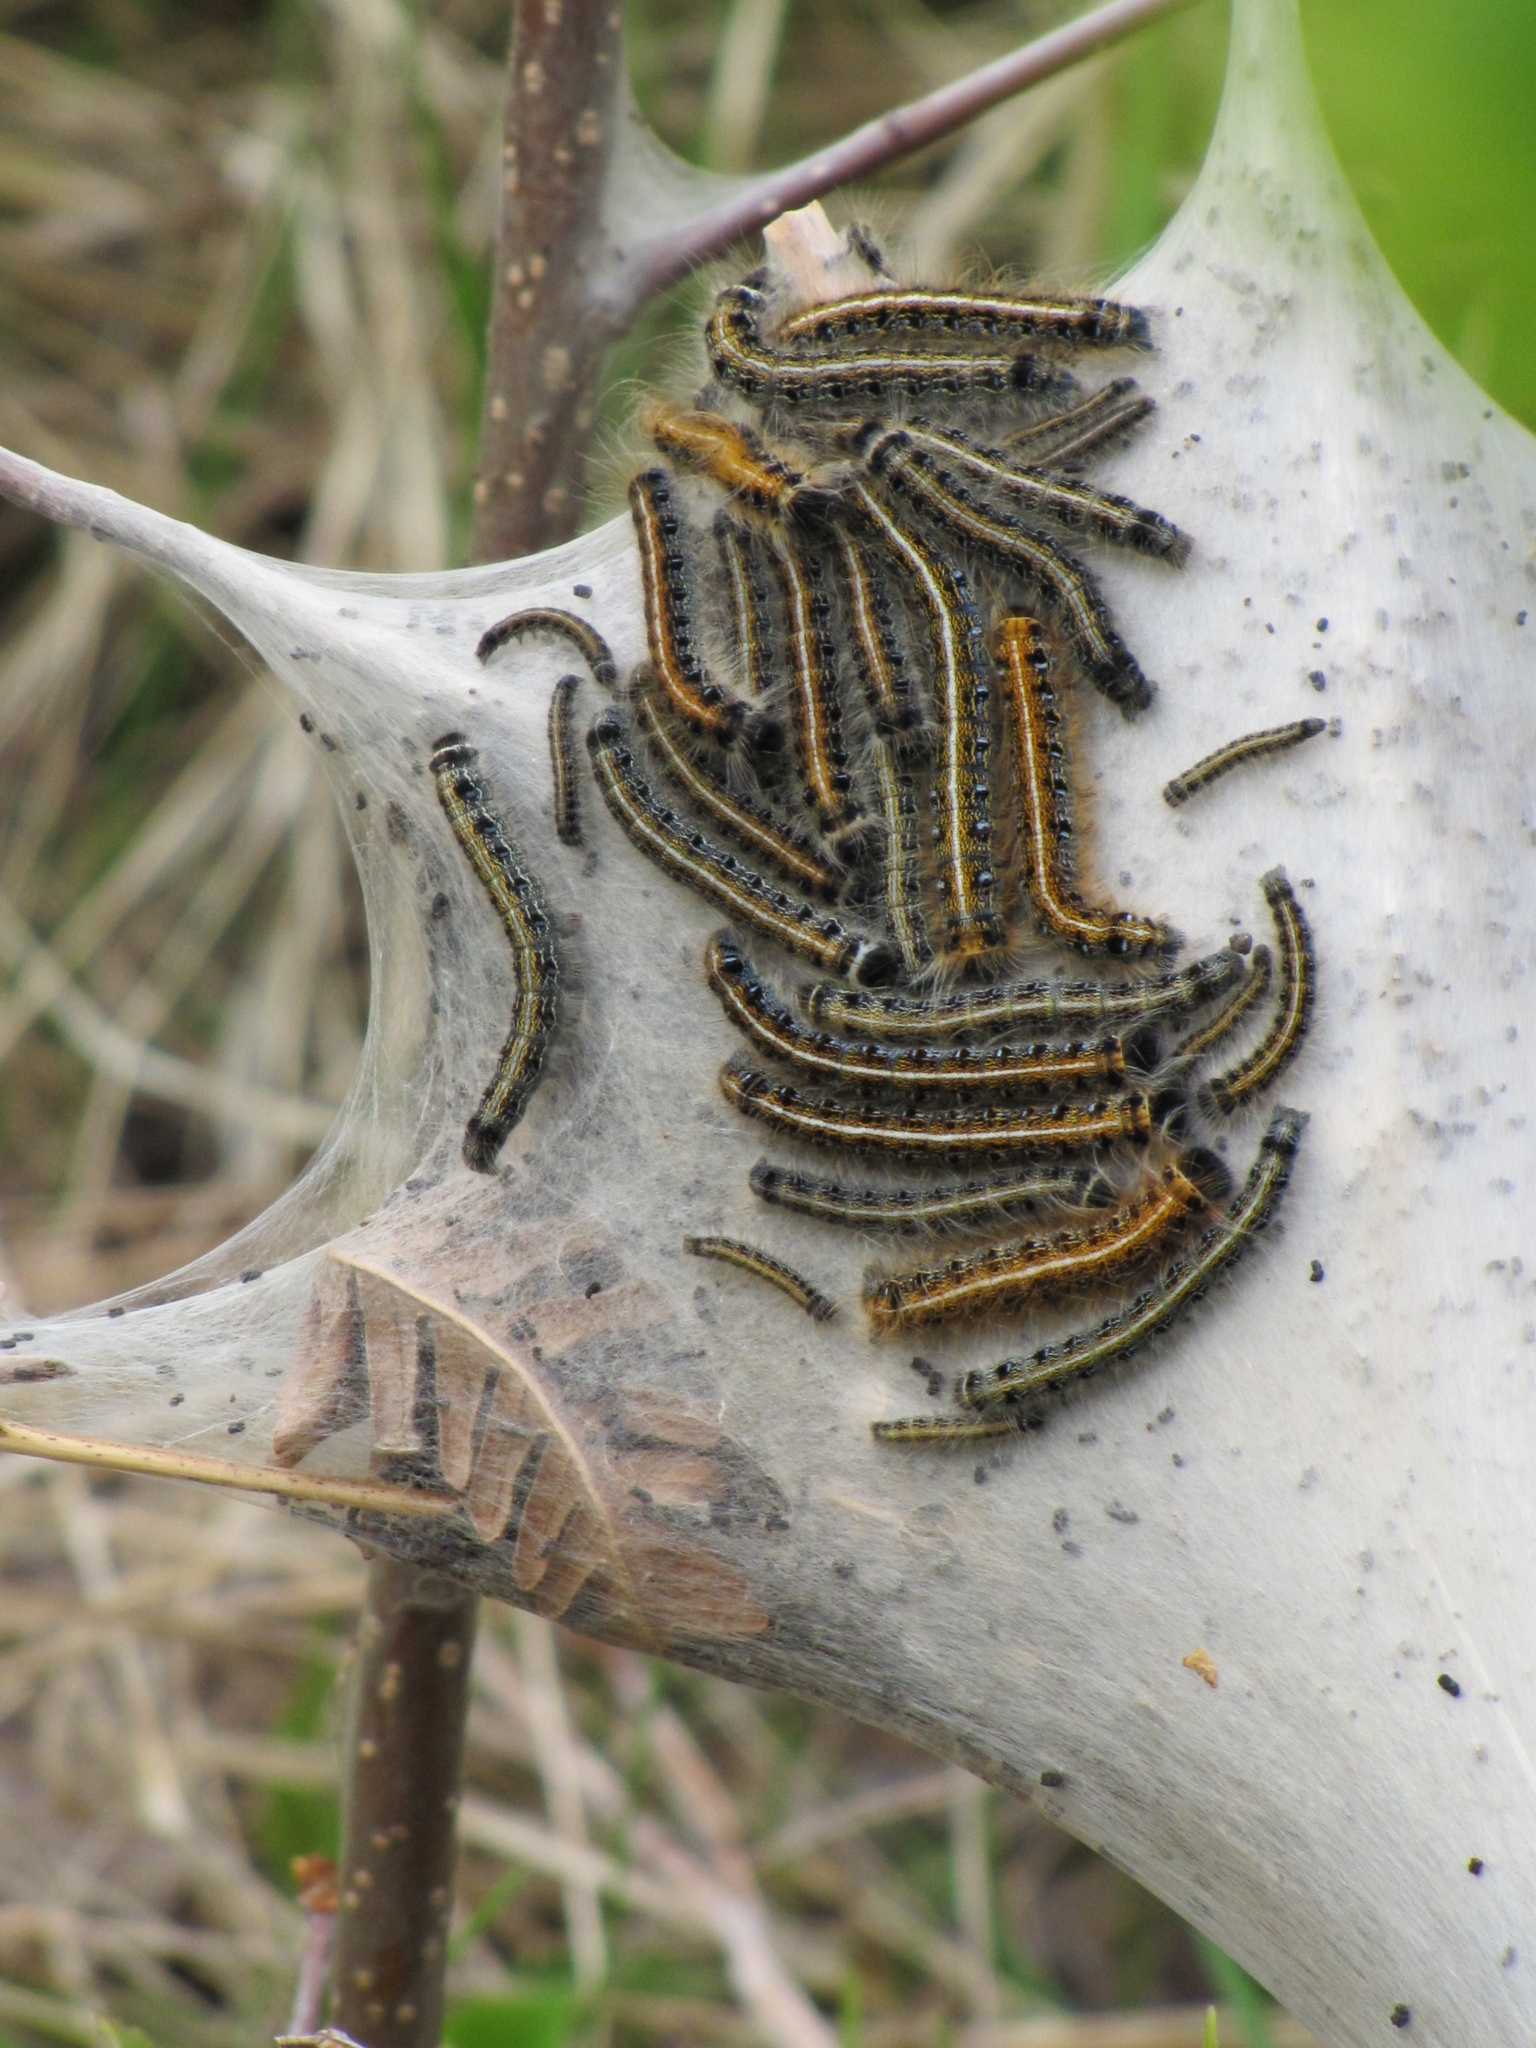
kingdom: Animalia
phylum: Arthropoda
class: Insecta
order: Lepidoptera
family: Lasiocampidae
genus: Malacosoma
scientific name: Malacosoma americana
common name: Eastern tent caterpillar moth
